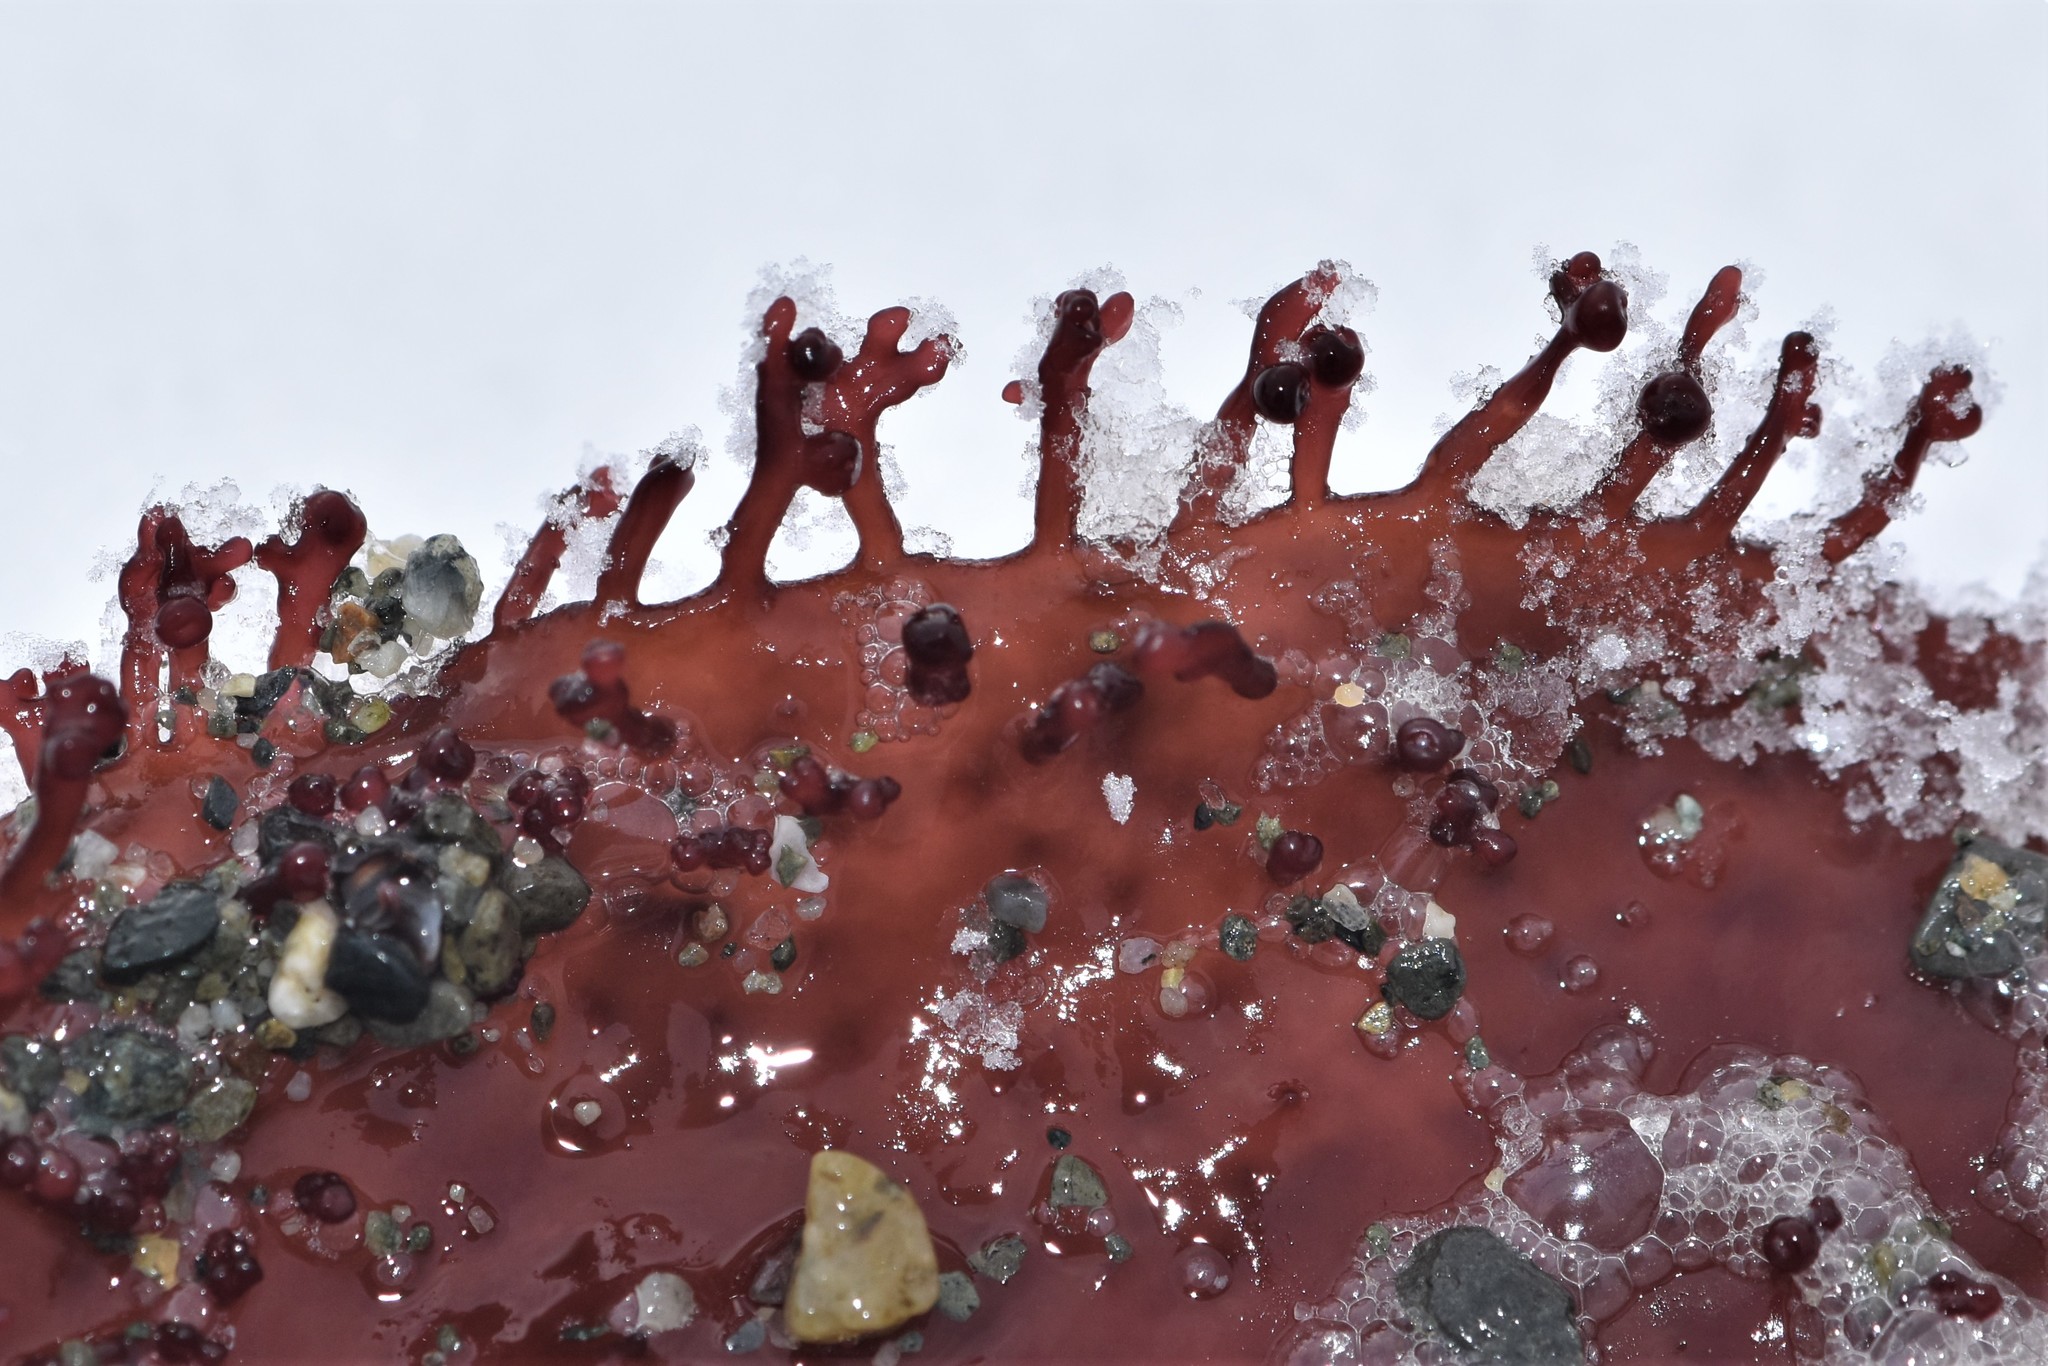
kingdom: Plantae
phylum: Rhodophyta
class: Florideophyceae
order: Gigartinales
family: Gigartinaceae
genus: Chondracanthus
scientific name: Chondracanthus corymbiferus
